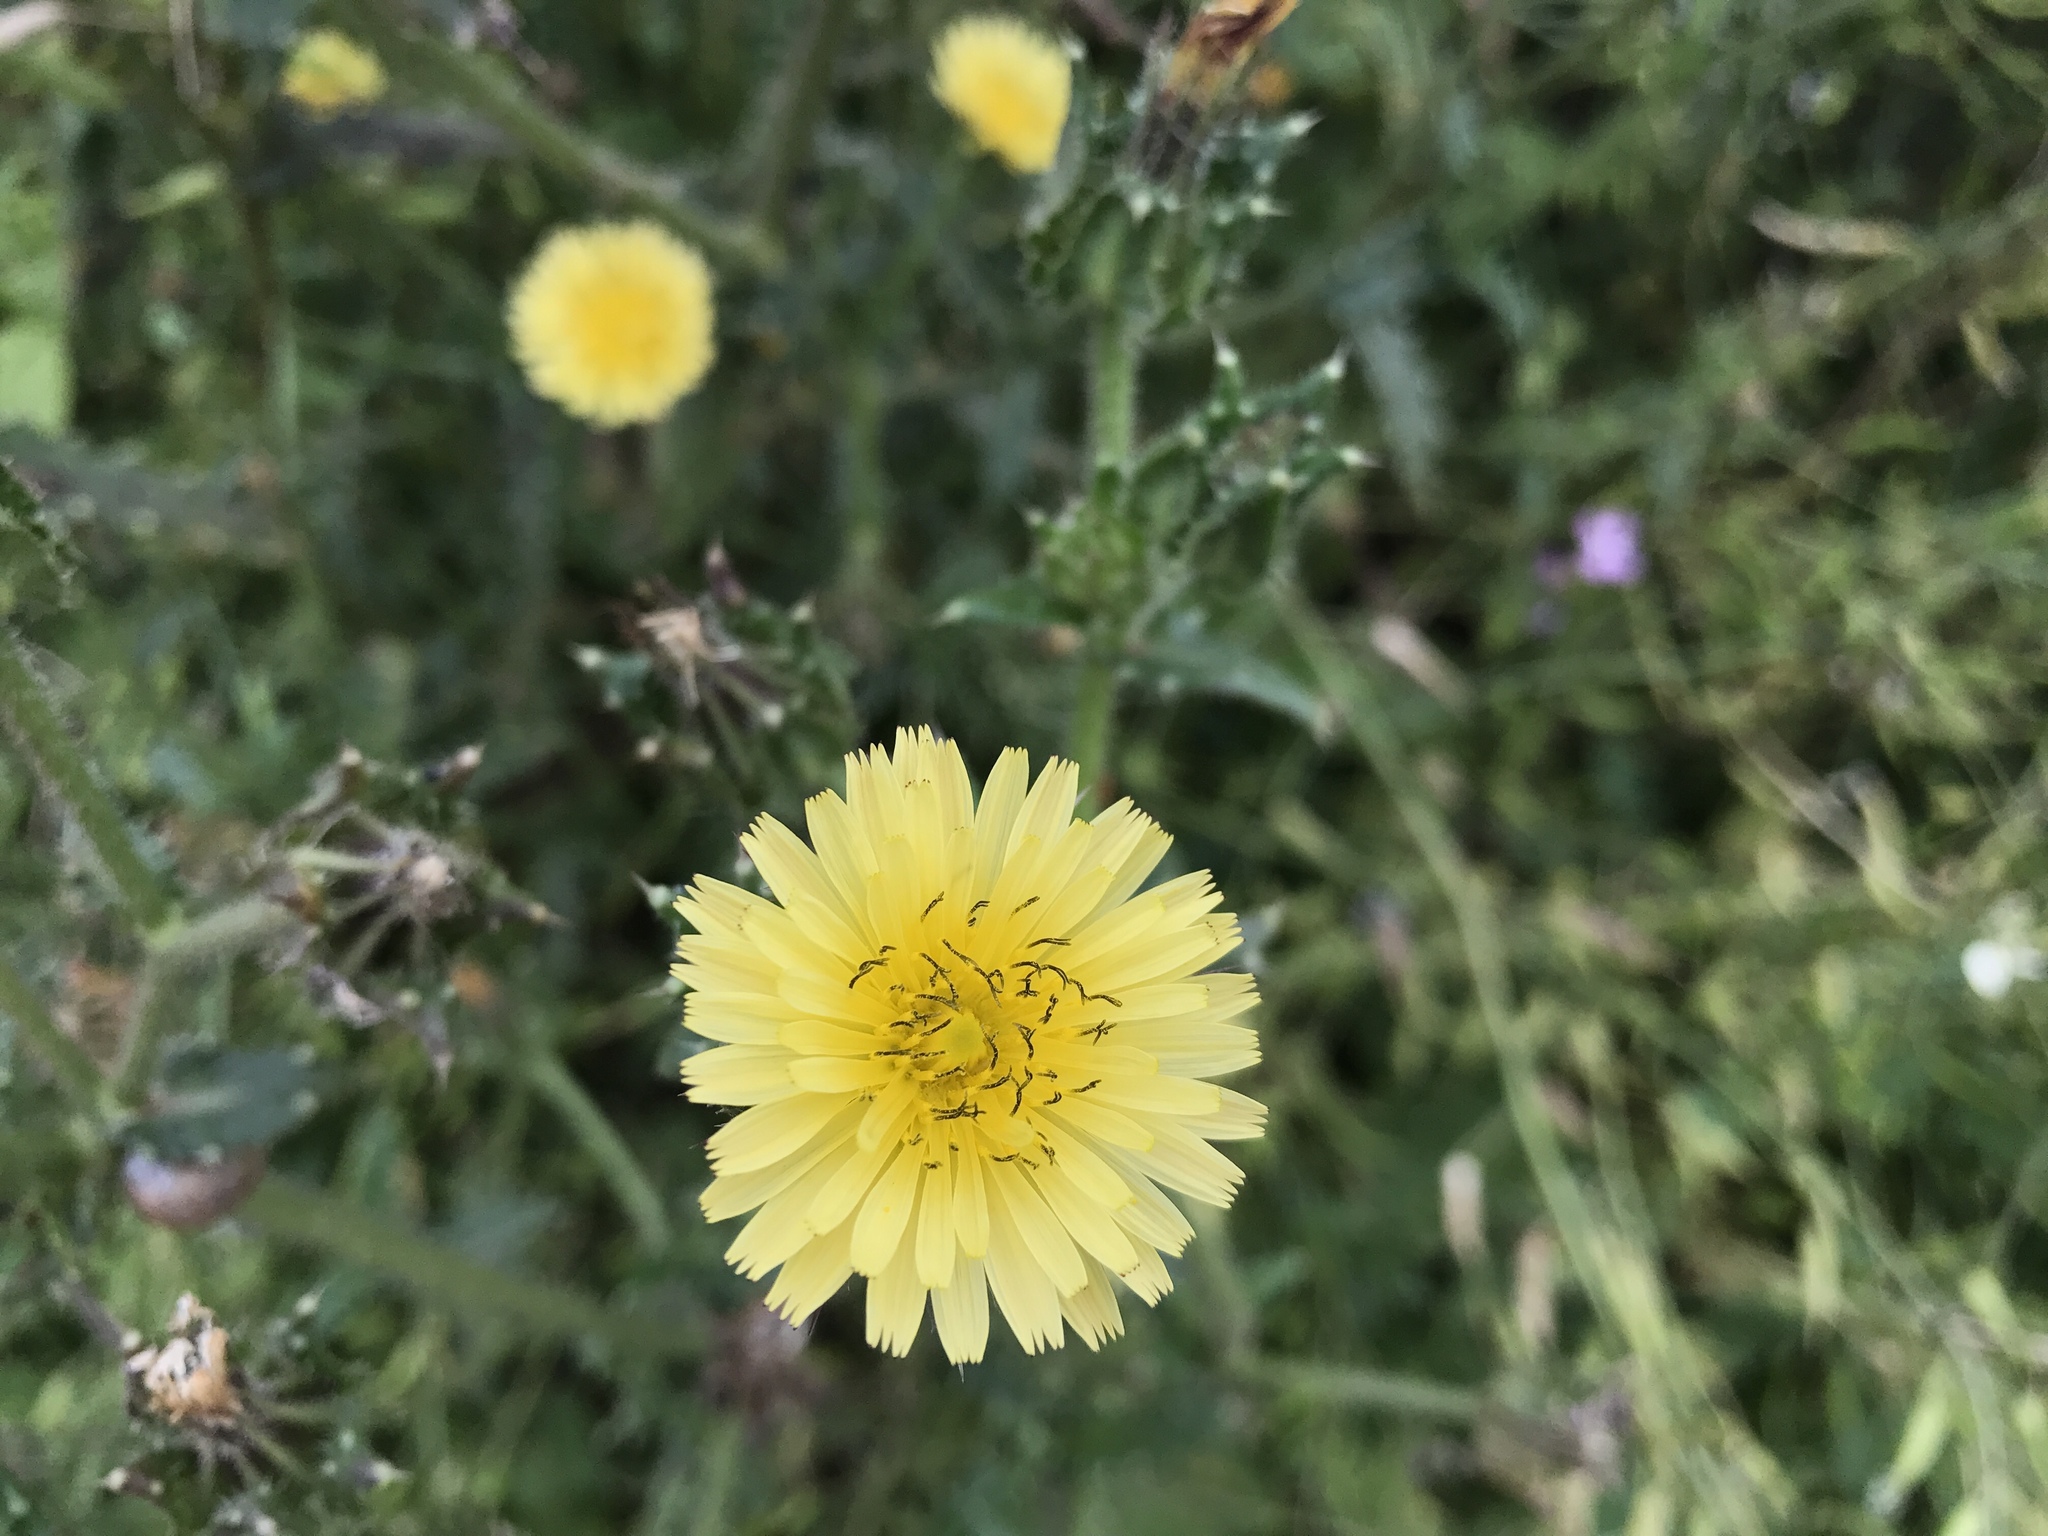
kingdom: Plantae
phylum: Tracheophyta
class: Magnoliopsida
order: Asterales
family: Asteraceae
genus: Helminthotheca
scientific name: Helminthotheca echioides
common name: Ox-tongue
